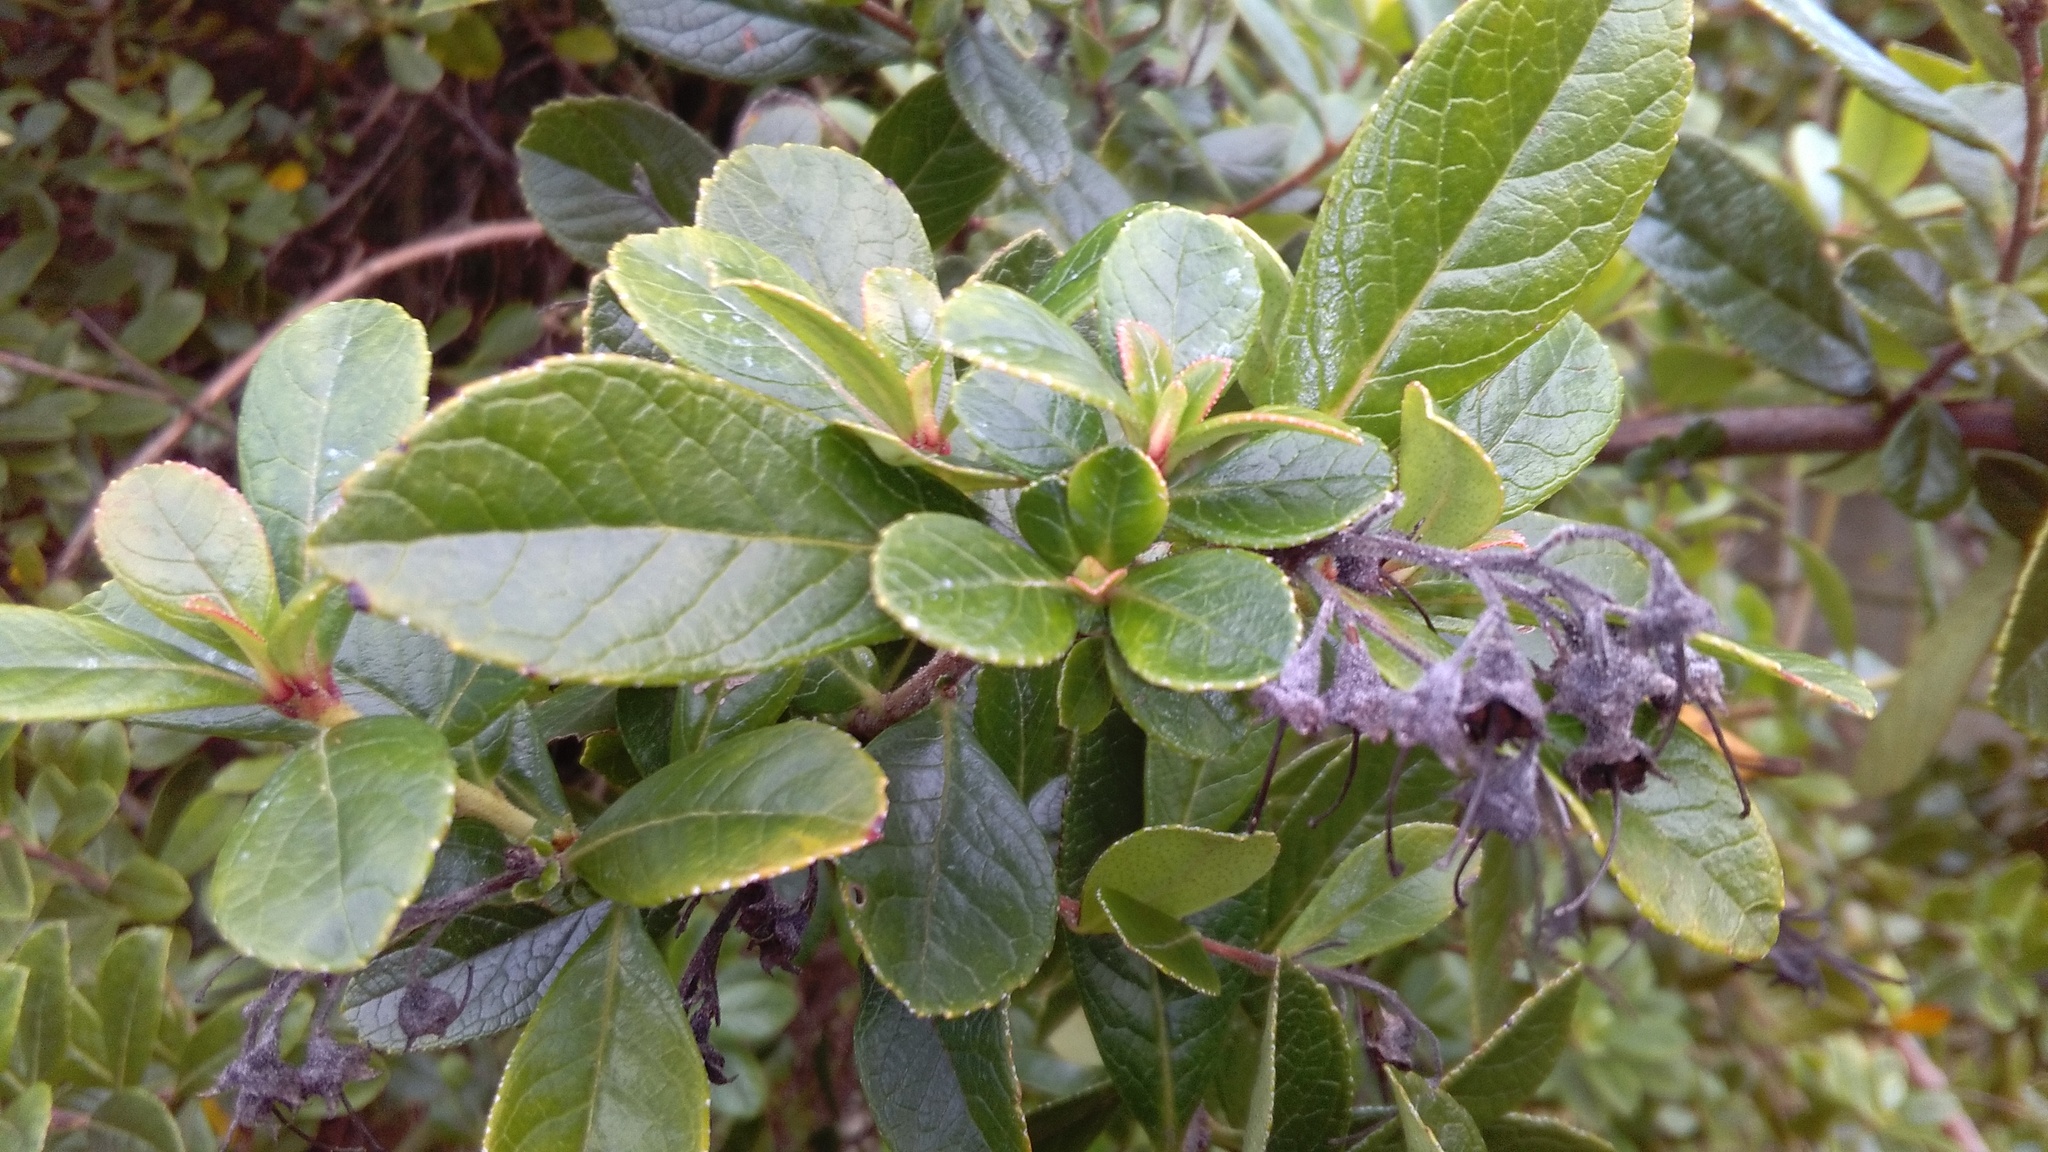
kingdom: Plantae
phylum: Tracheophyta
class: Magnoliopsida
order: Escalloniales
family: Escalloniaceae
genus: Escallonia
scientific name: Escallonia rubra
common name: Redclaws
